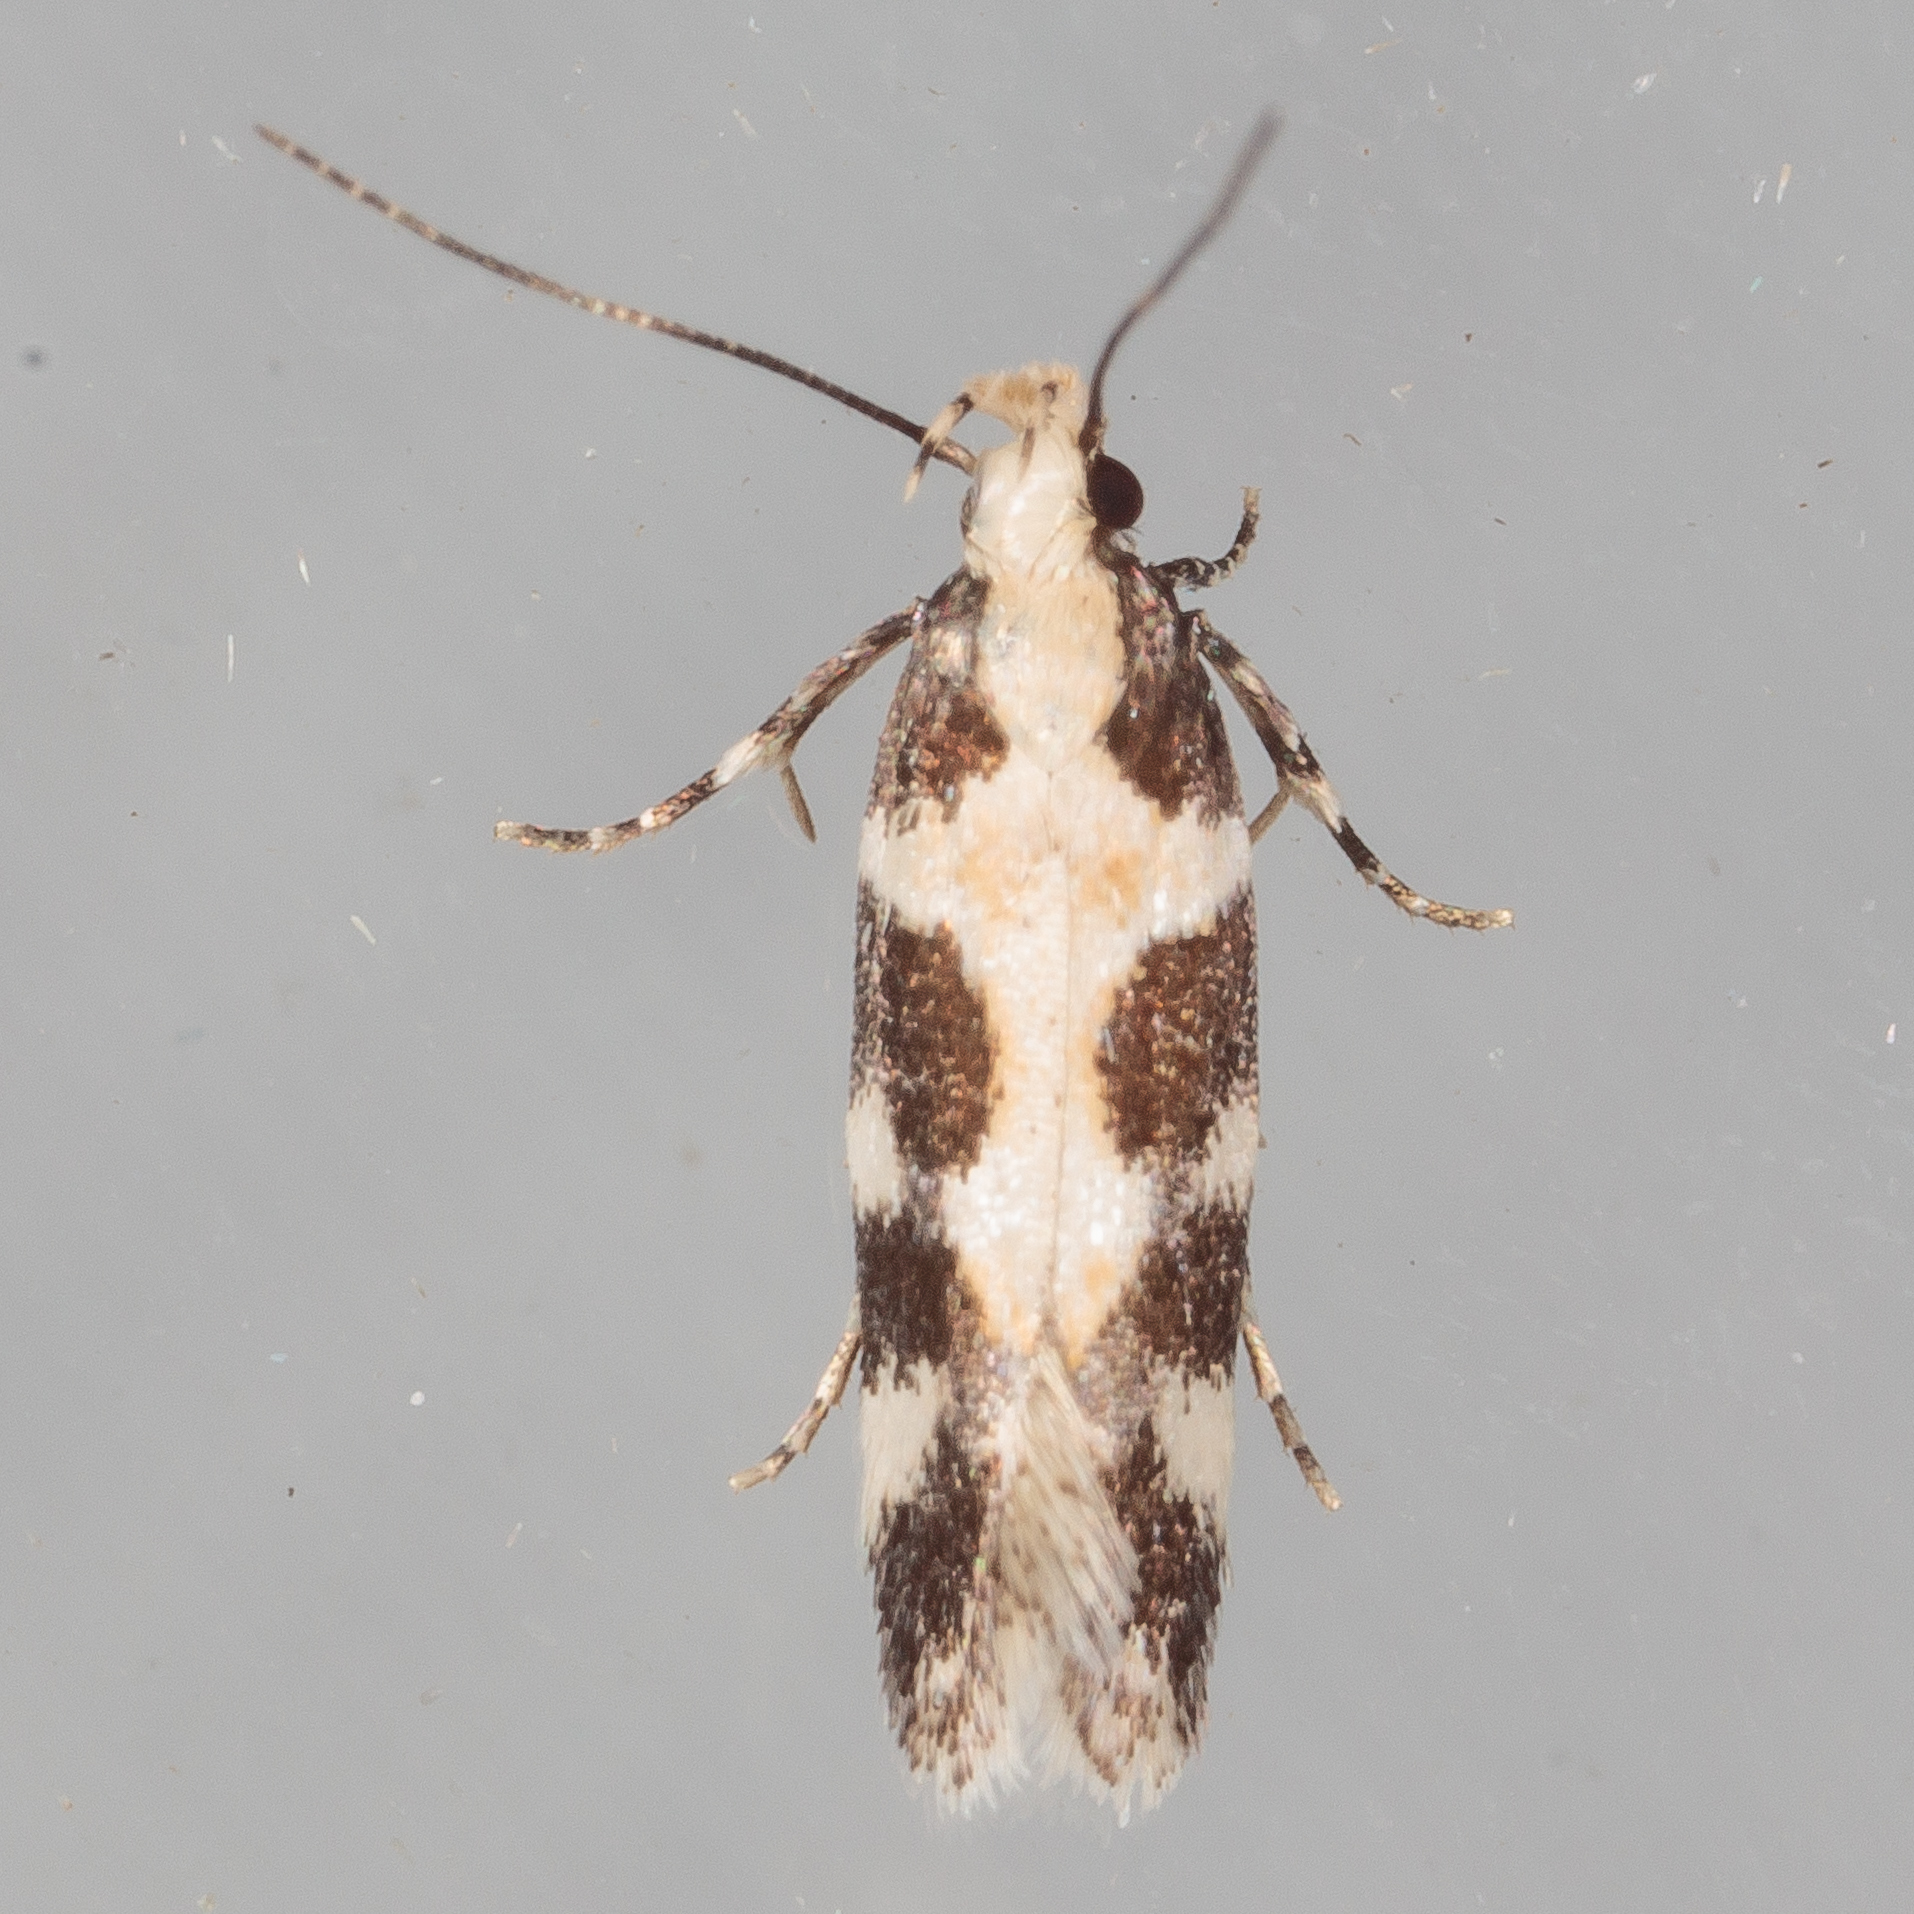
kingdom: Animalia
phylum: Arthropoda
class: Insecta
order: Lepidoptera
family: Gelechiidae
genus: Stegasta
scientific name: Stegasta capitella
